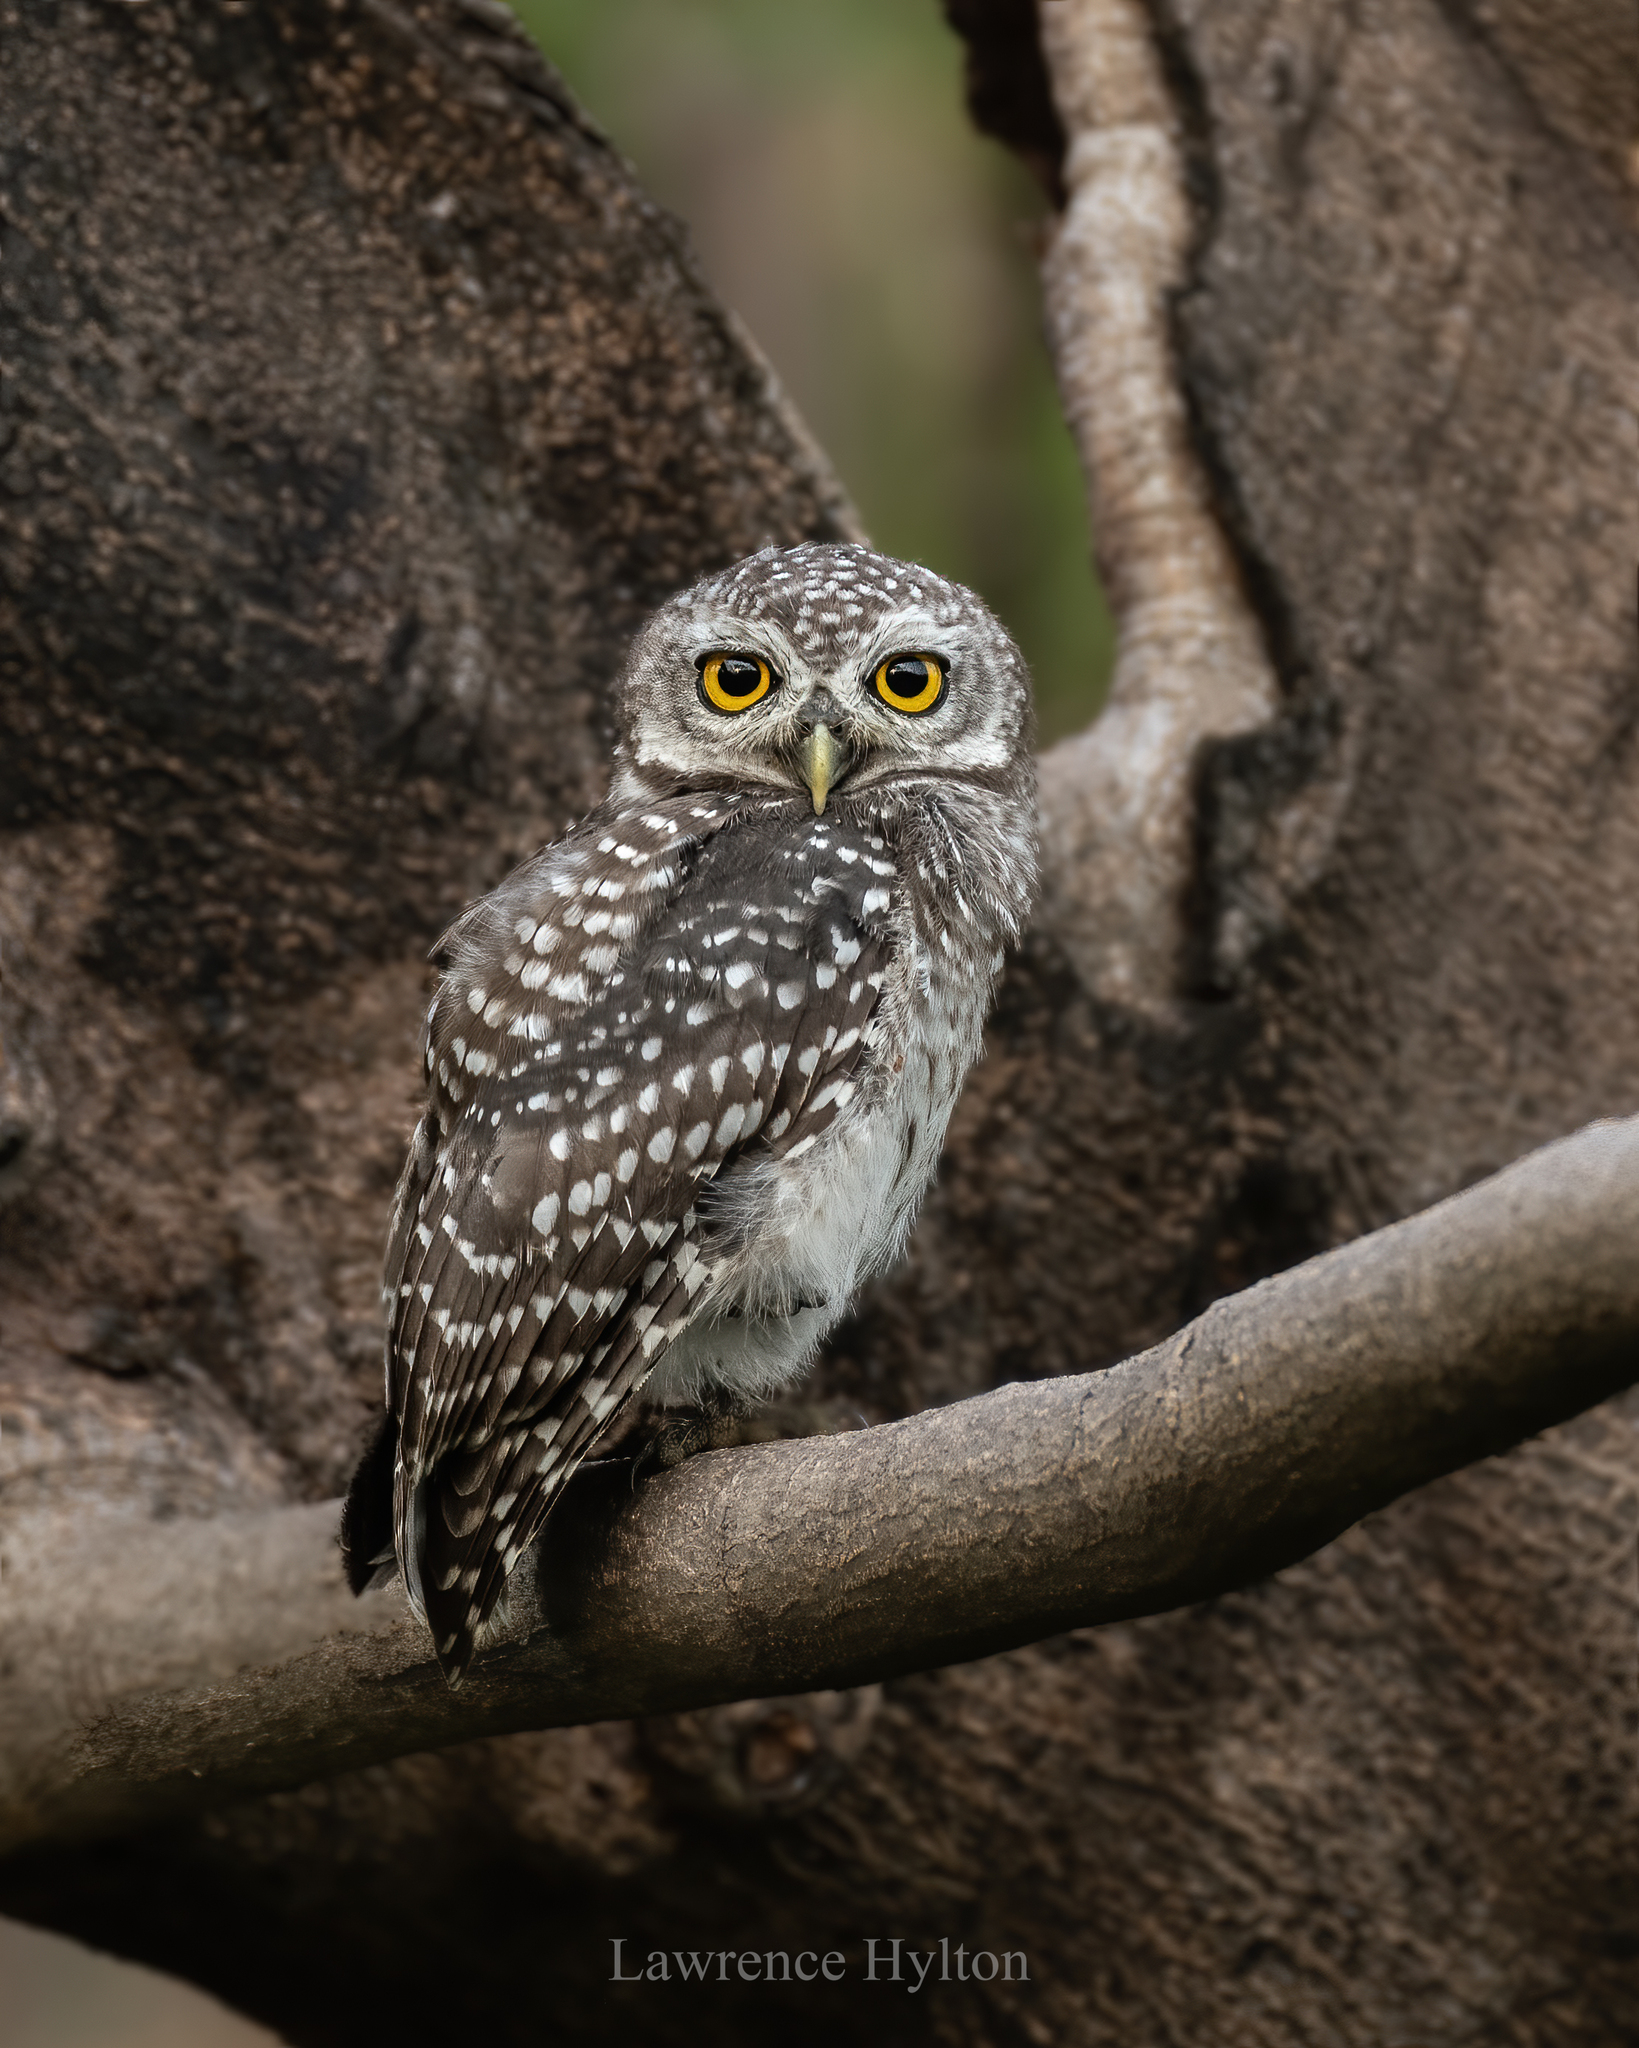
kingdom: Animalia
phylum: Chordata
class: Aves
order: Strigiformes
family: Strigidae
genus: Athene
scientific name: Athene brama
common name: Spotted owlet
